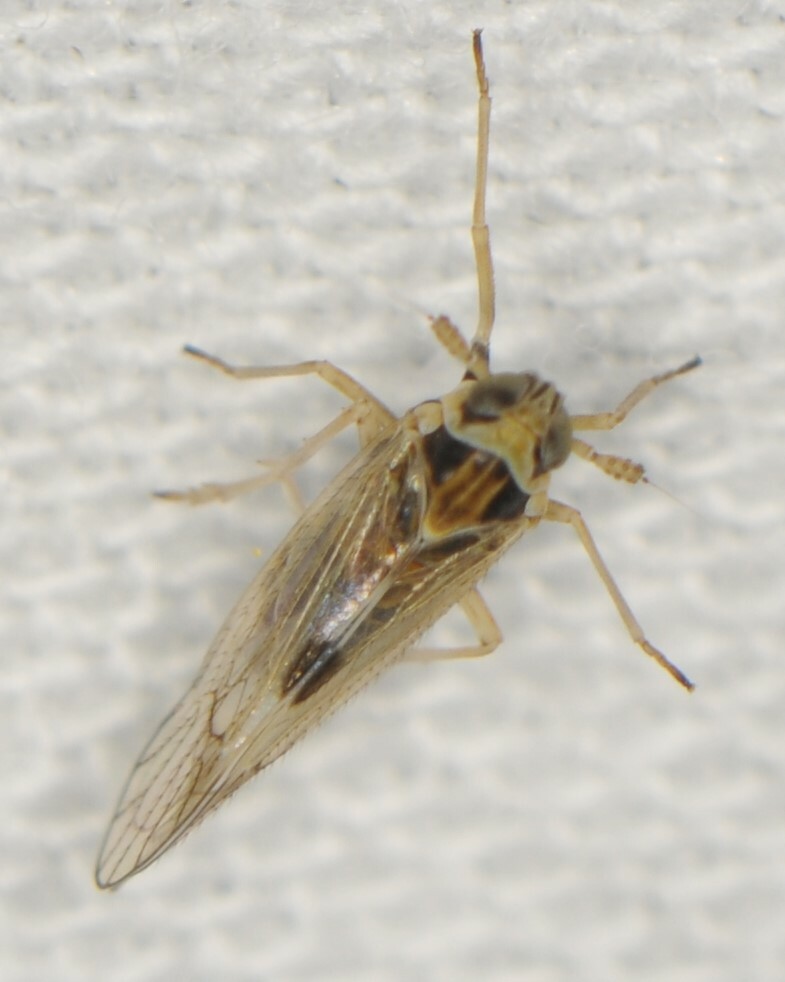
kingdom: Animalia
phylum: Arthropoda
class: Insecta
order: Hemiptera
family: Delphacidae
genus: Chionomus
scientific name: Chionomus
